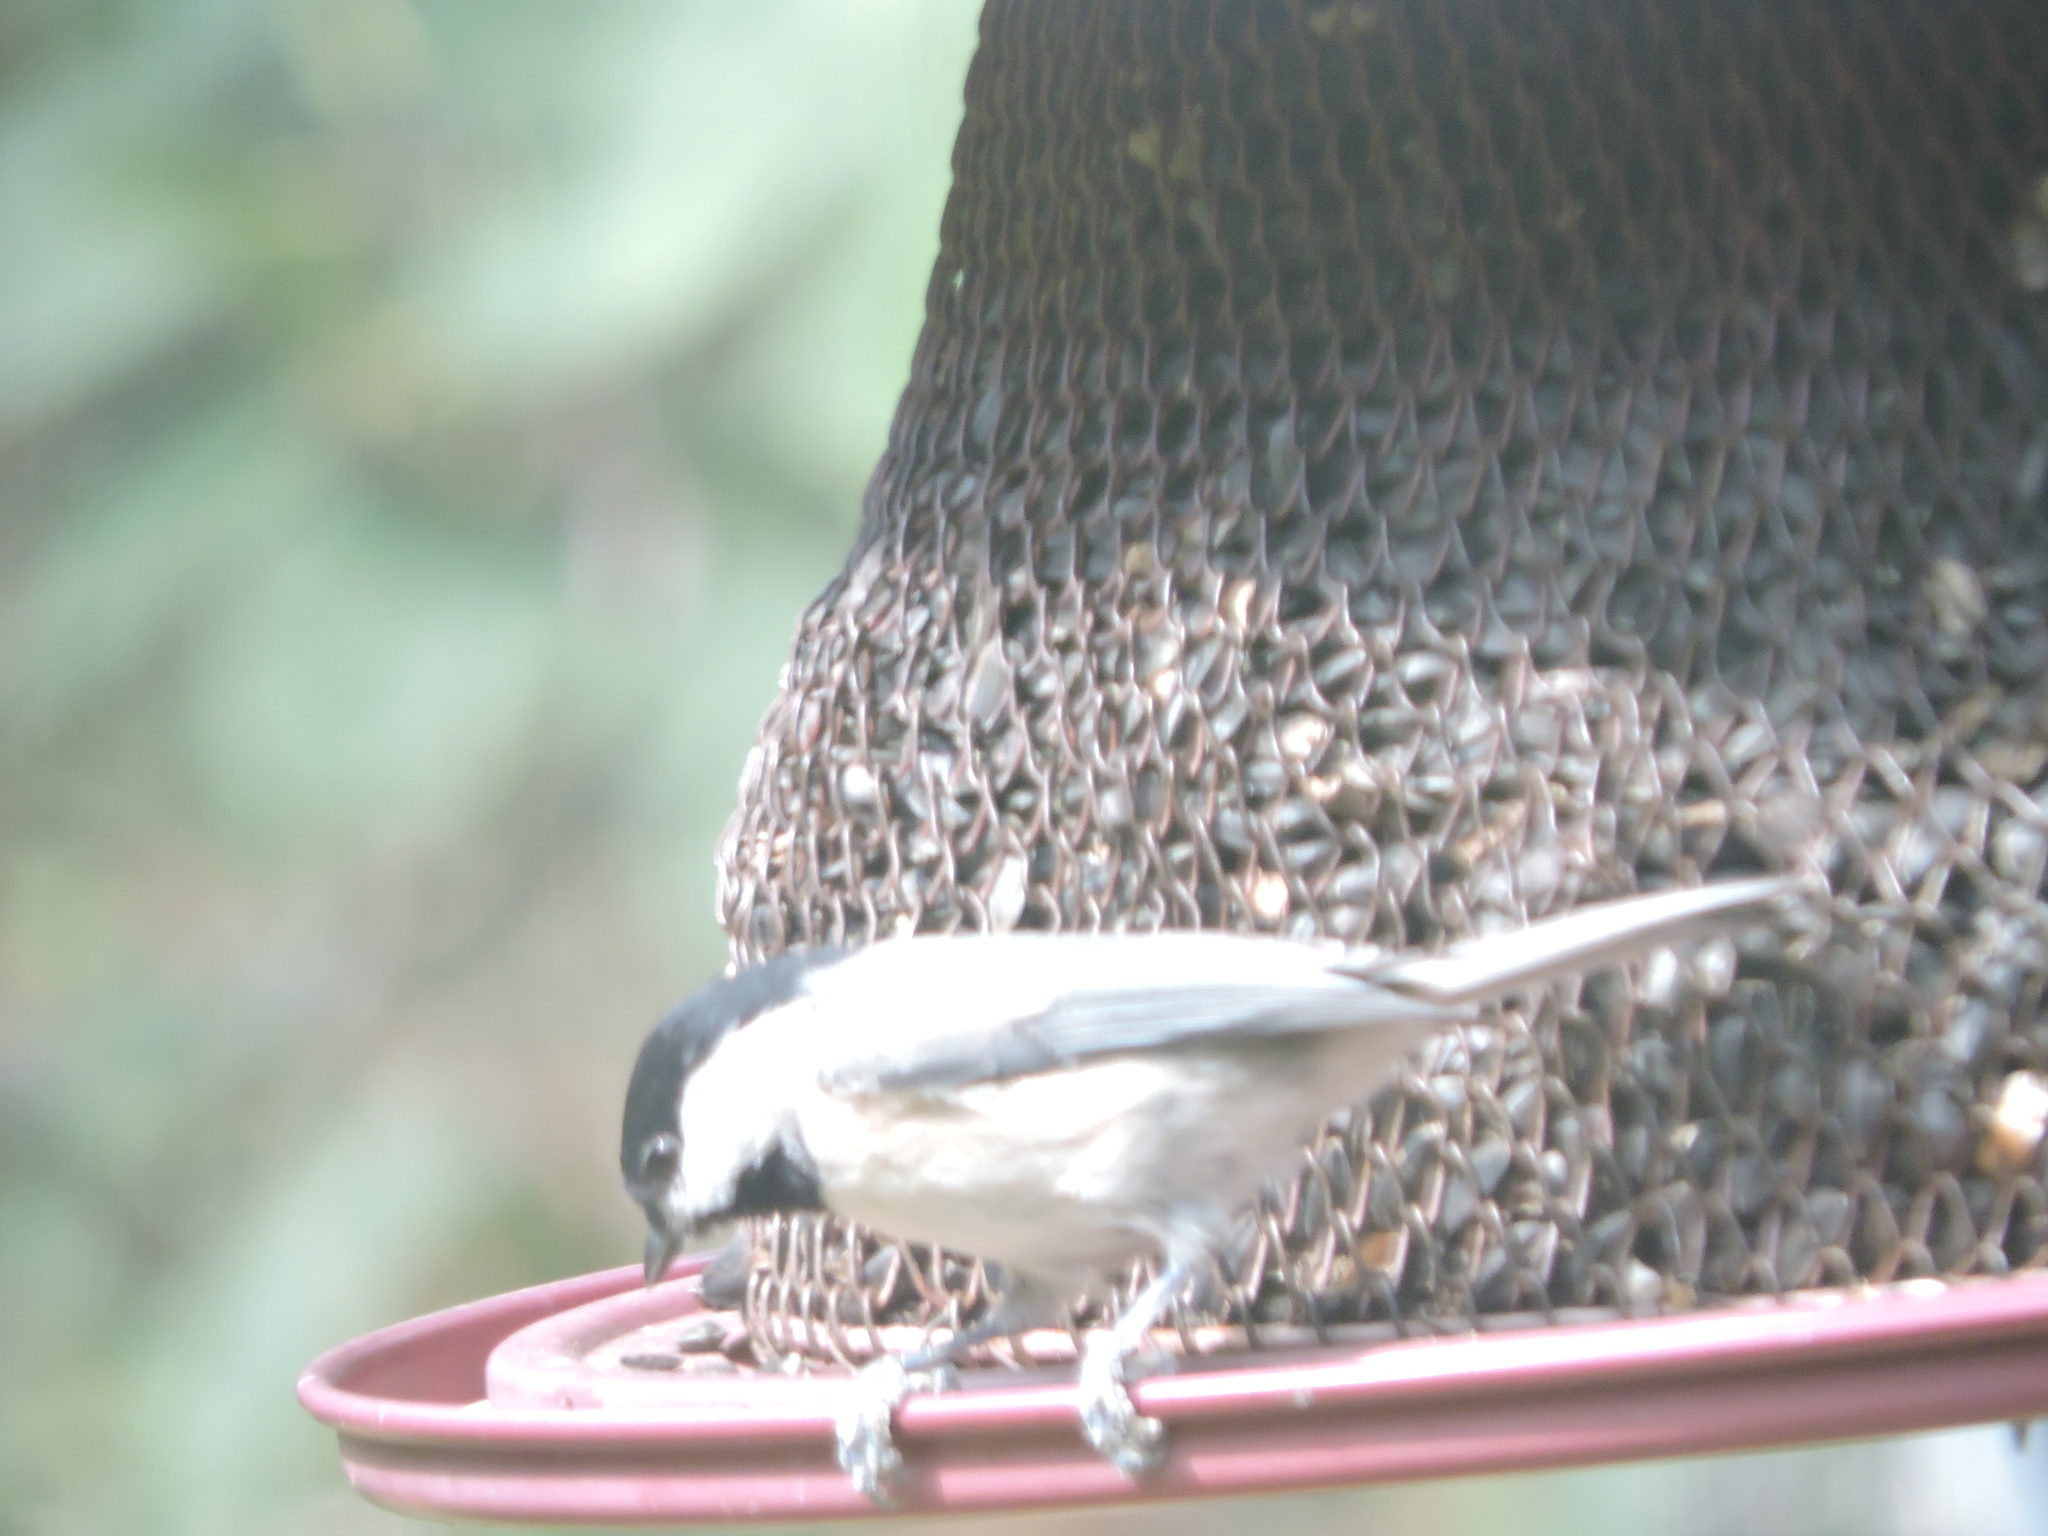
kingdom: Animalia
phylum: Chordata
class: Aves
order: Passeriformes
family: Paridae
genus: Poecile
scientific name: Poecile carolinensis
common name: Carolina chickadee
